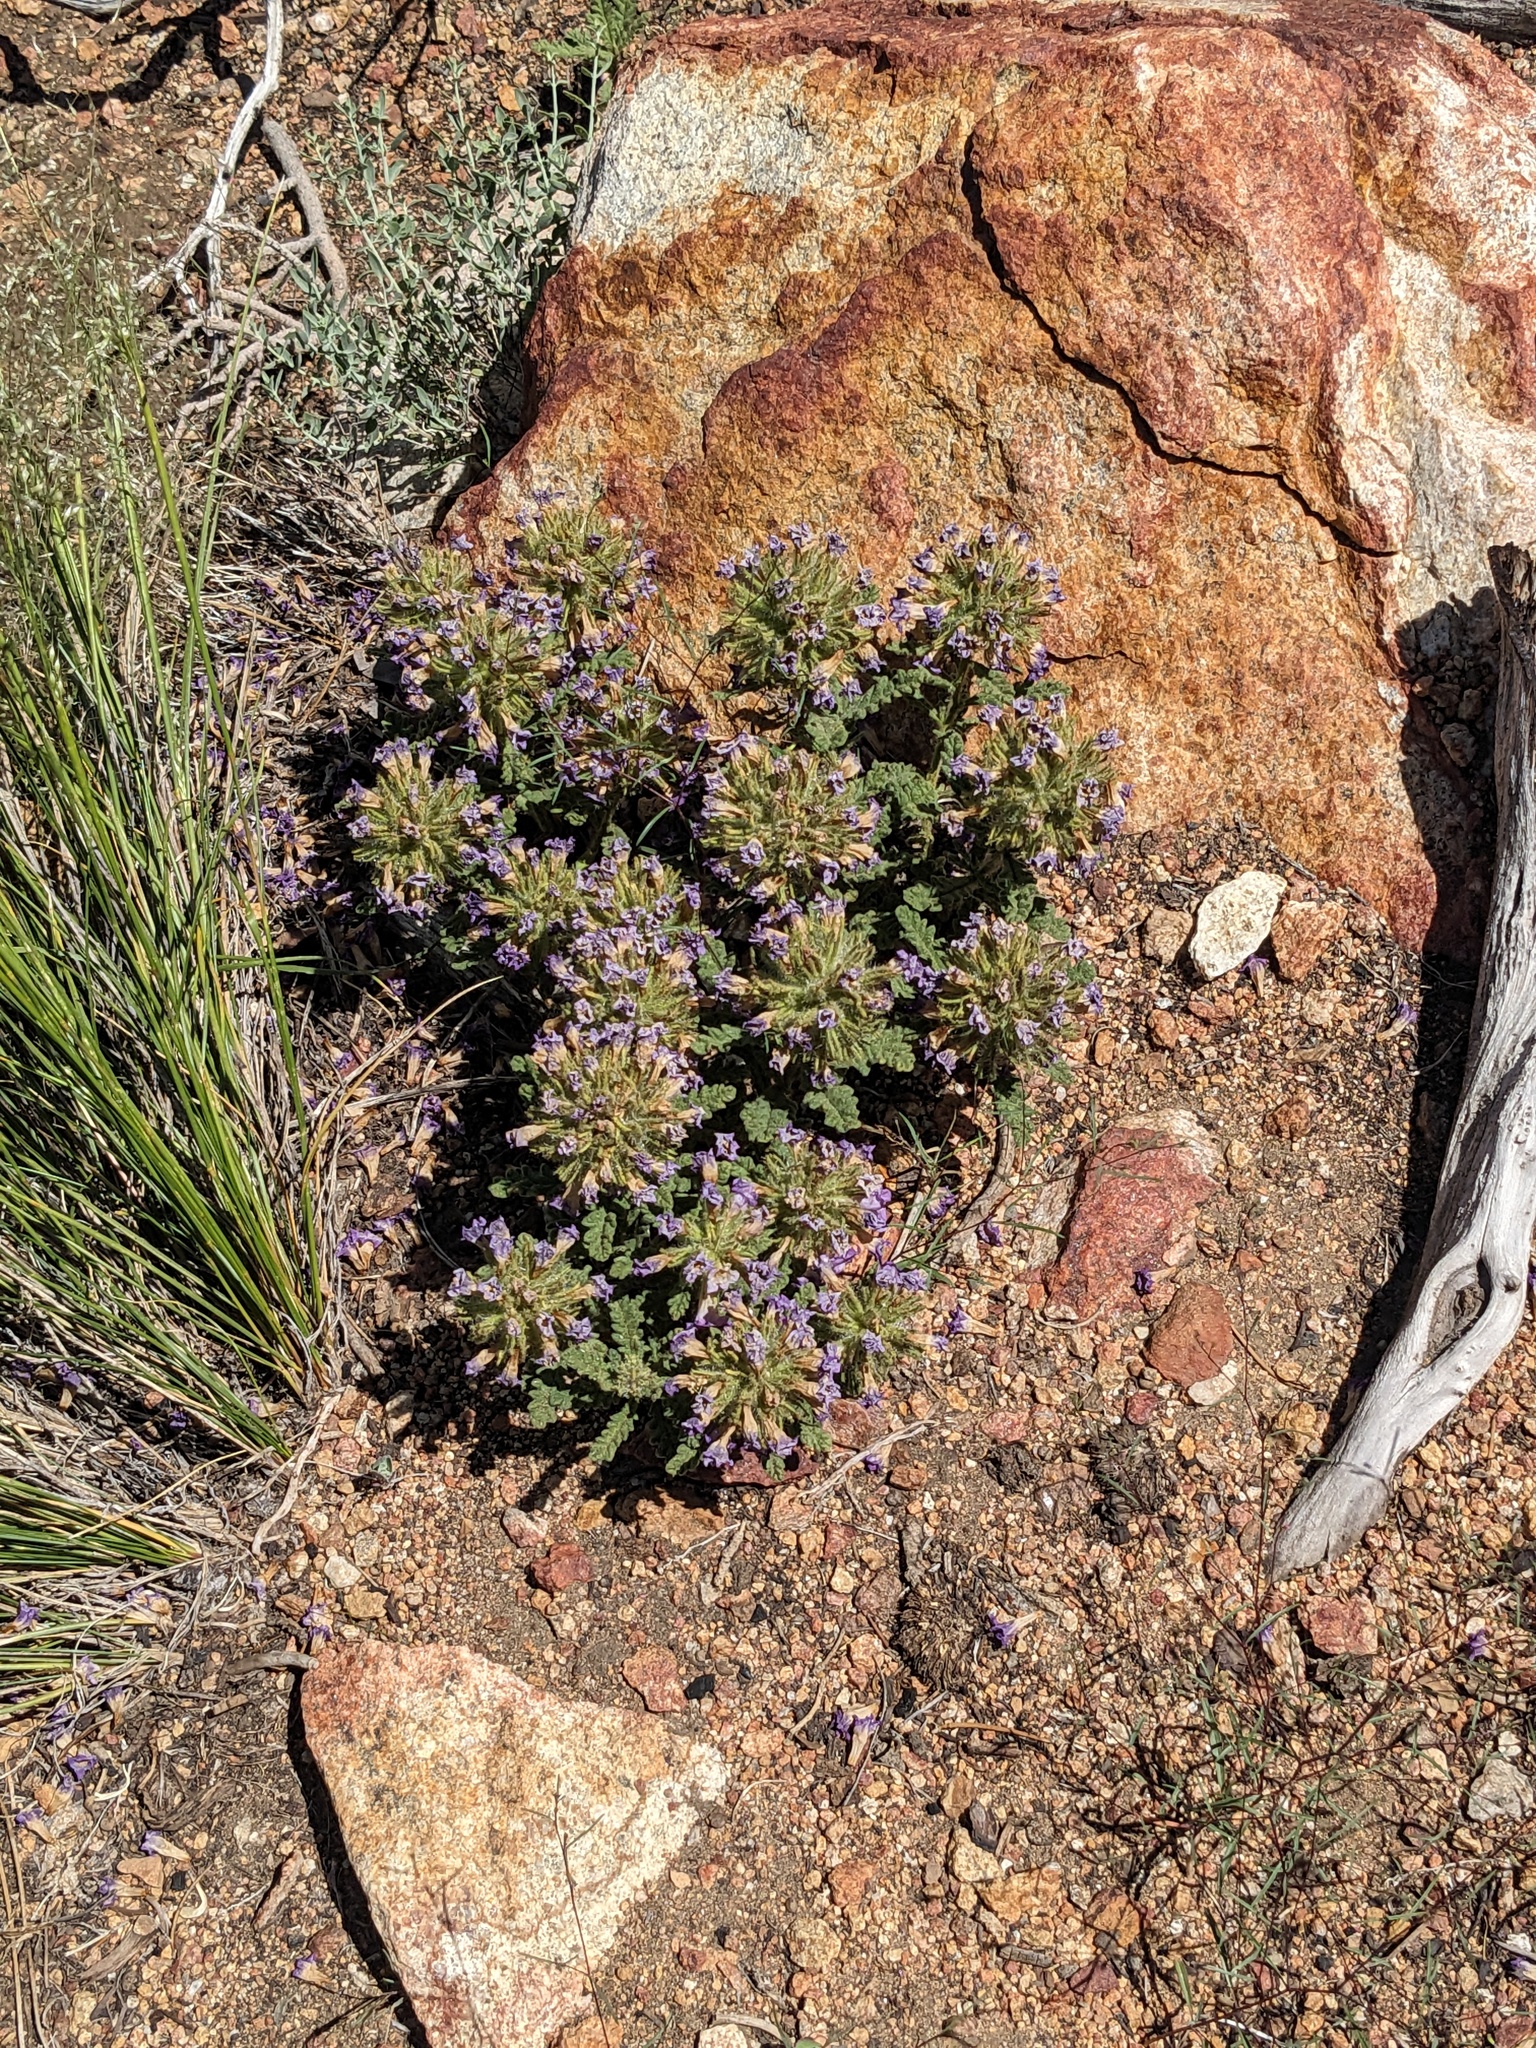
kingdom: Plantae
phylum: Tracheophyta
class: Magnoliopsida
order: Boraginales
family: Namaceae
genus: Nama
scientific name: Nama rothrockii
